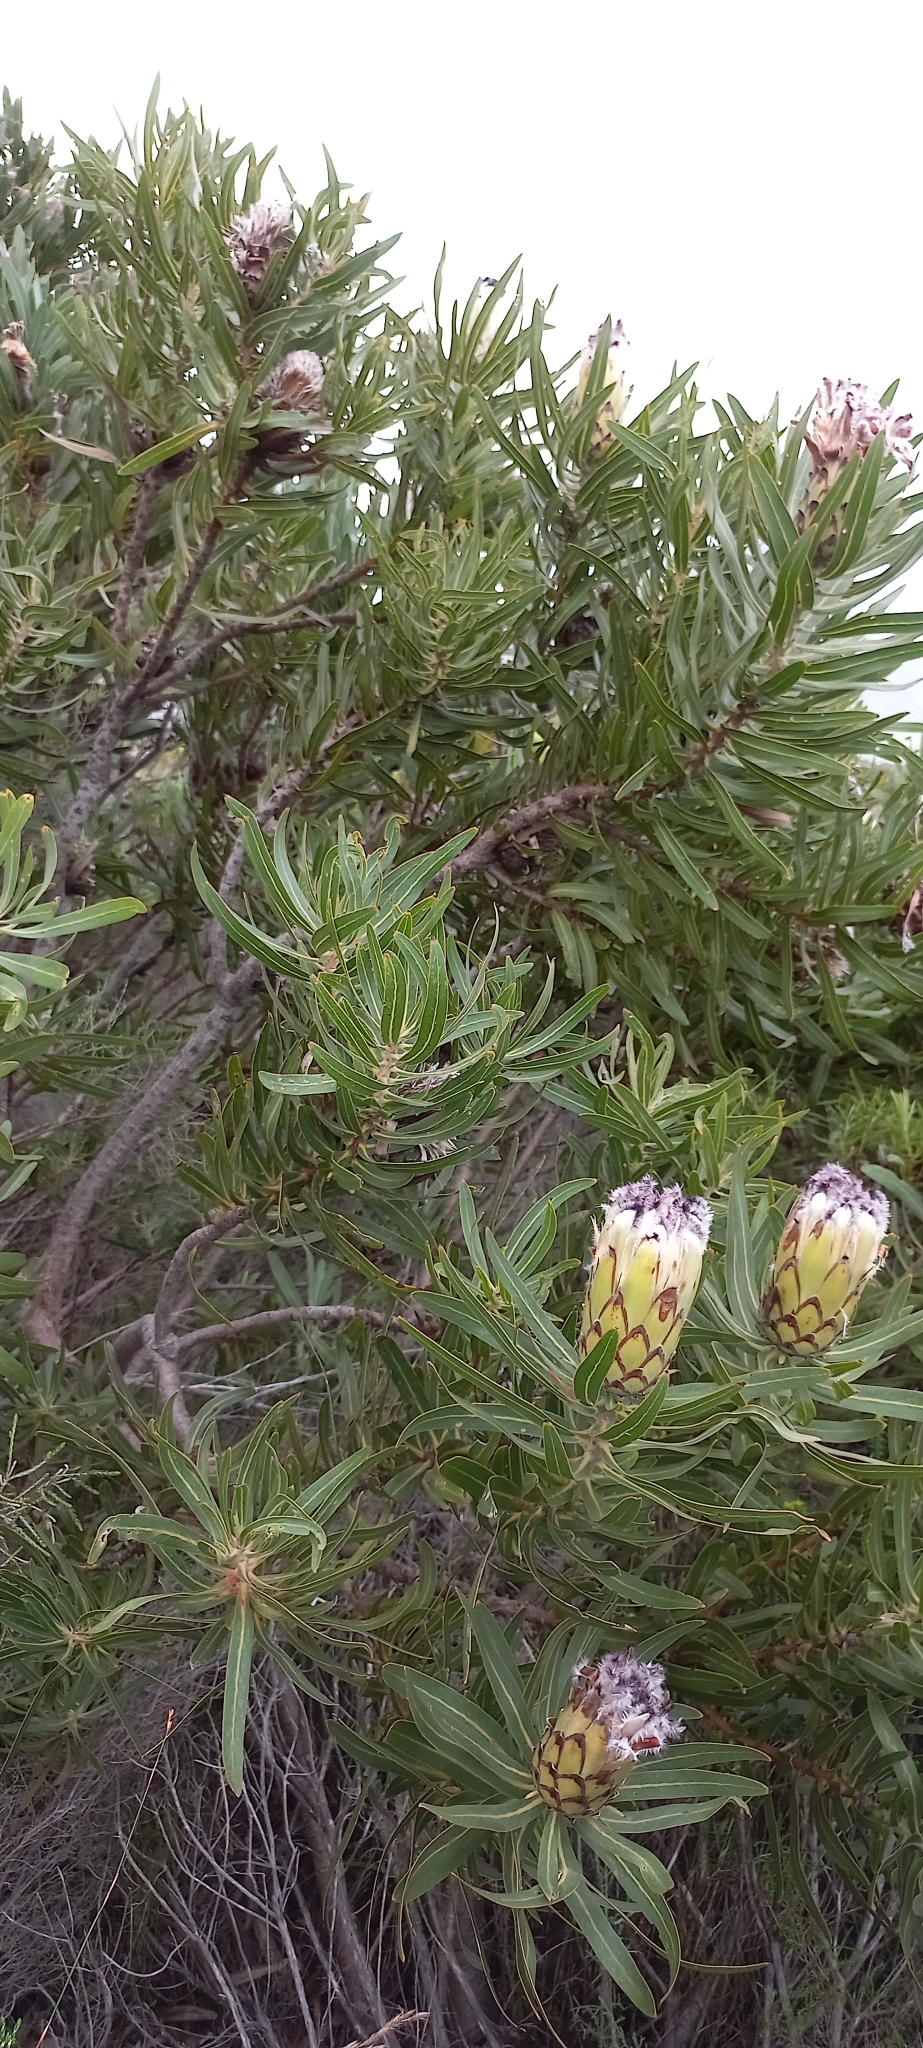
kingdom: Plantae
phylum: Tracheophyta
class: Magnoliopsida
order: Proteales
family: Proteaceae
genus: Protea
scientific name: Protea neriifolia
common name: Blue sugarbush
